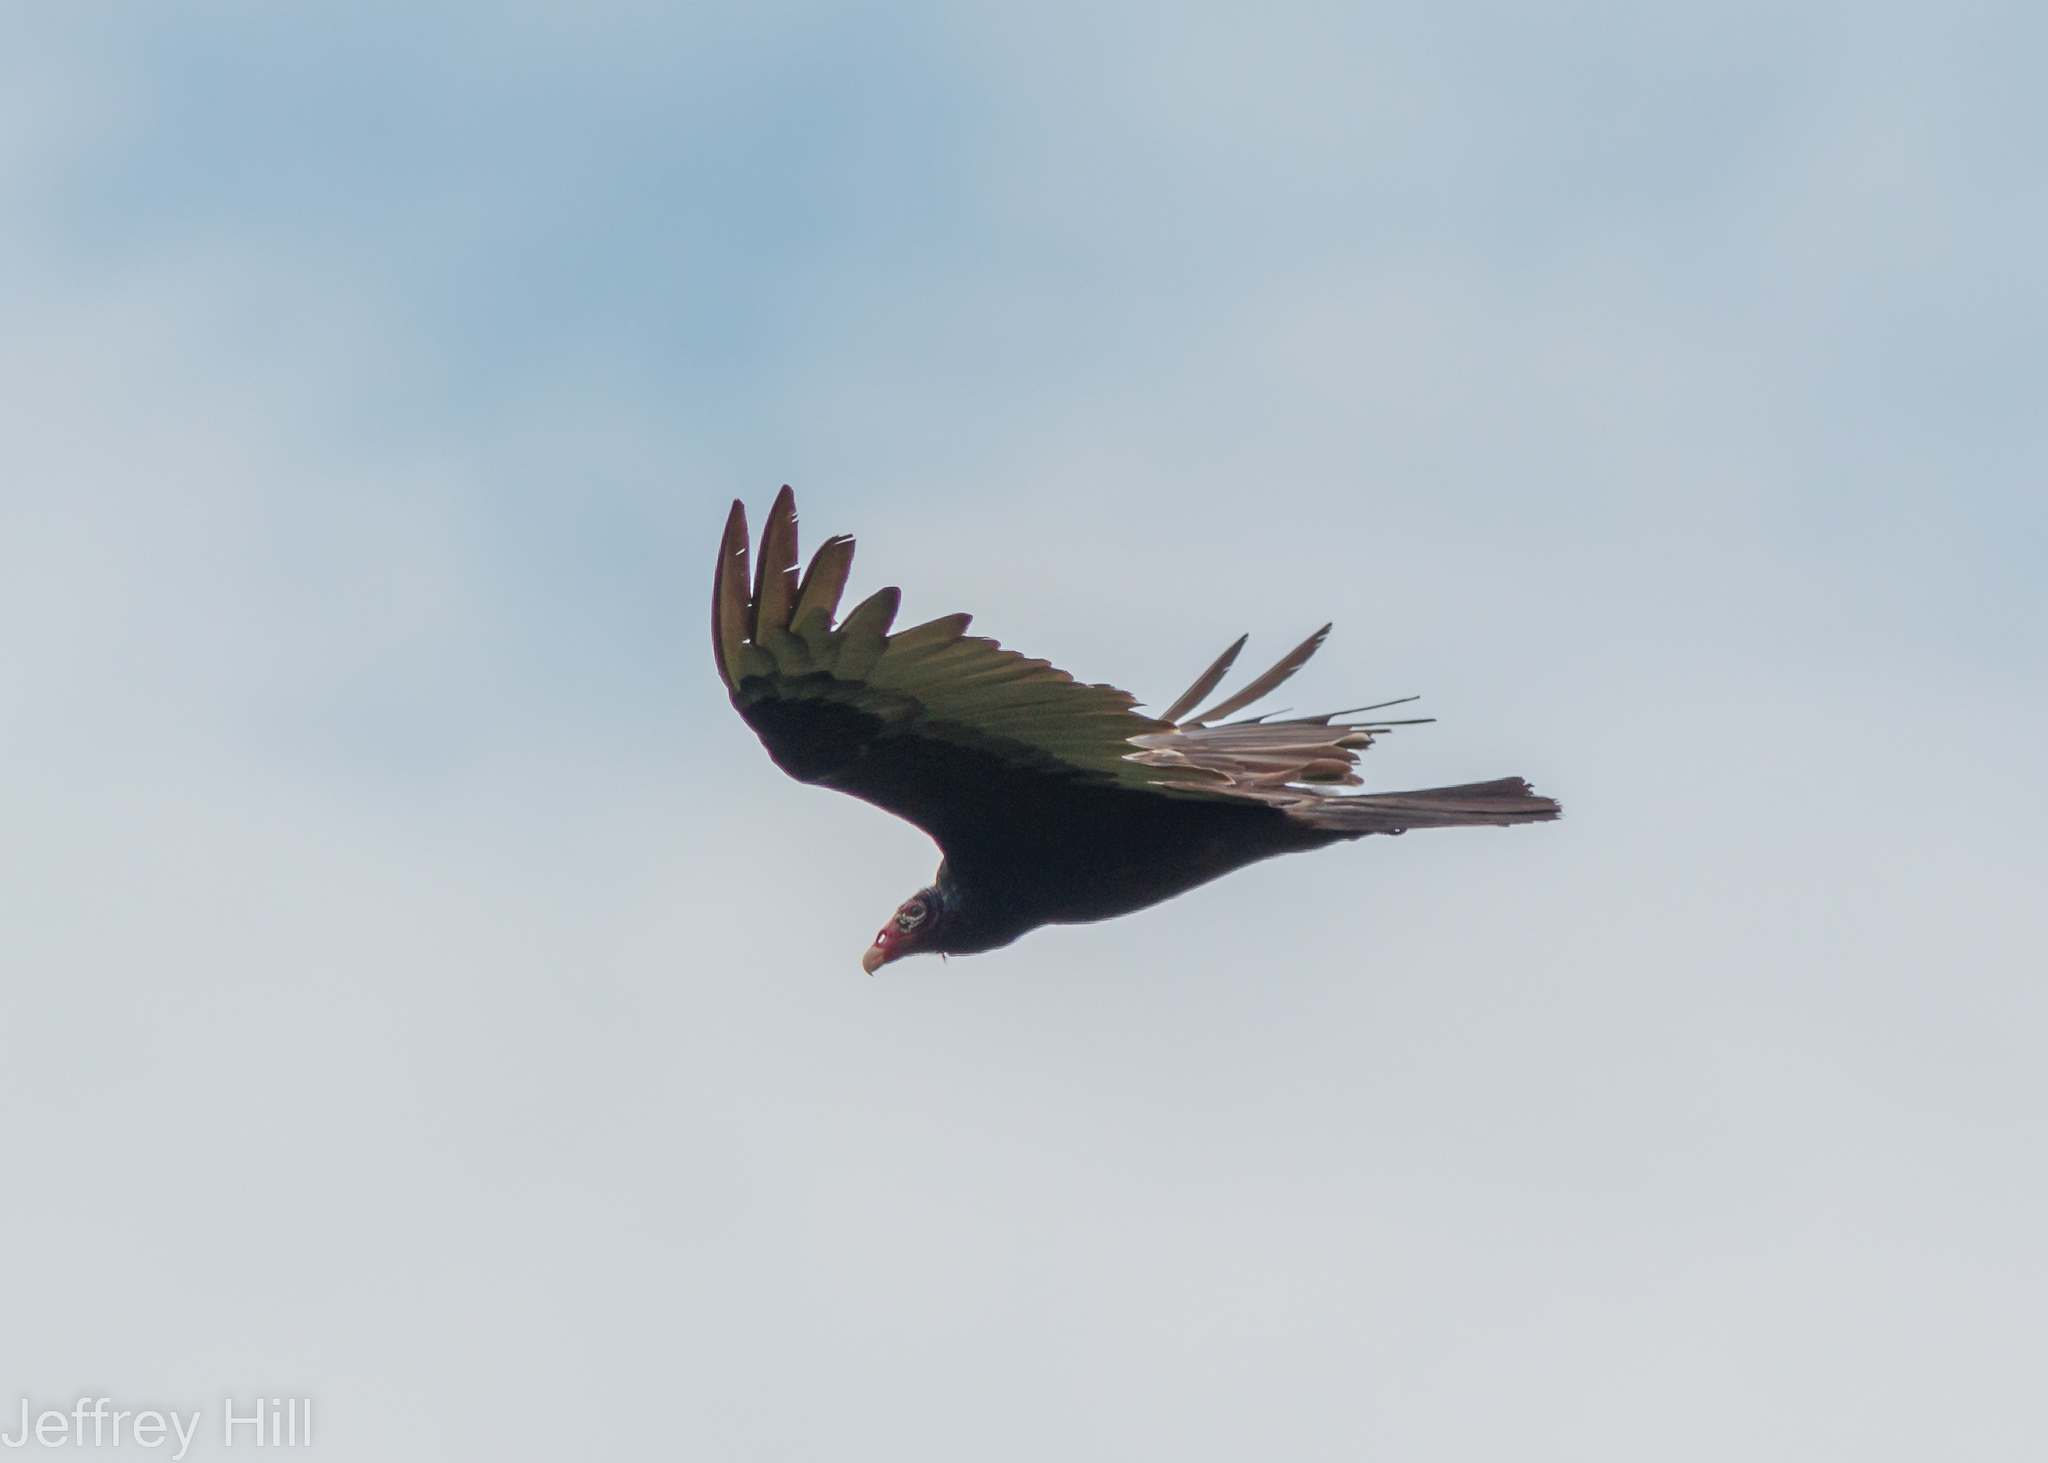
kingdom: Animalia
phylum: Chordata
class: Aves
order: Accipitriformes
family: Cathartidae
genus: Cathartes
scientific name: Cathartes aura
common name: Turkey vulture
